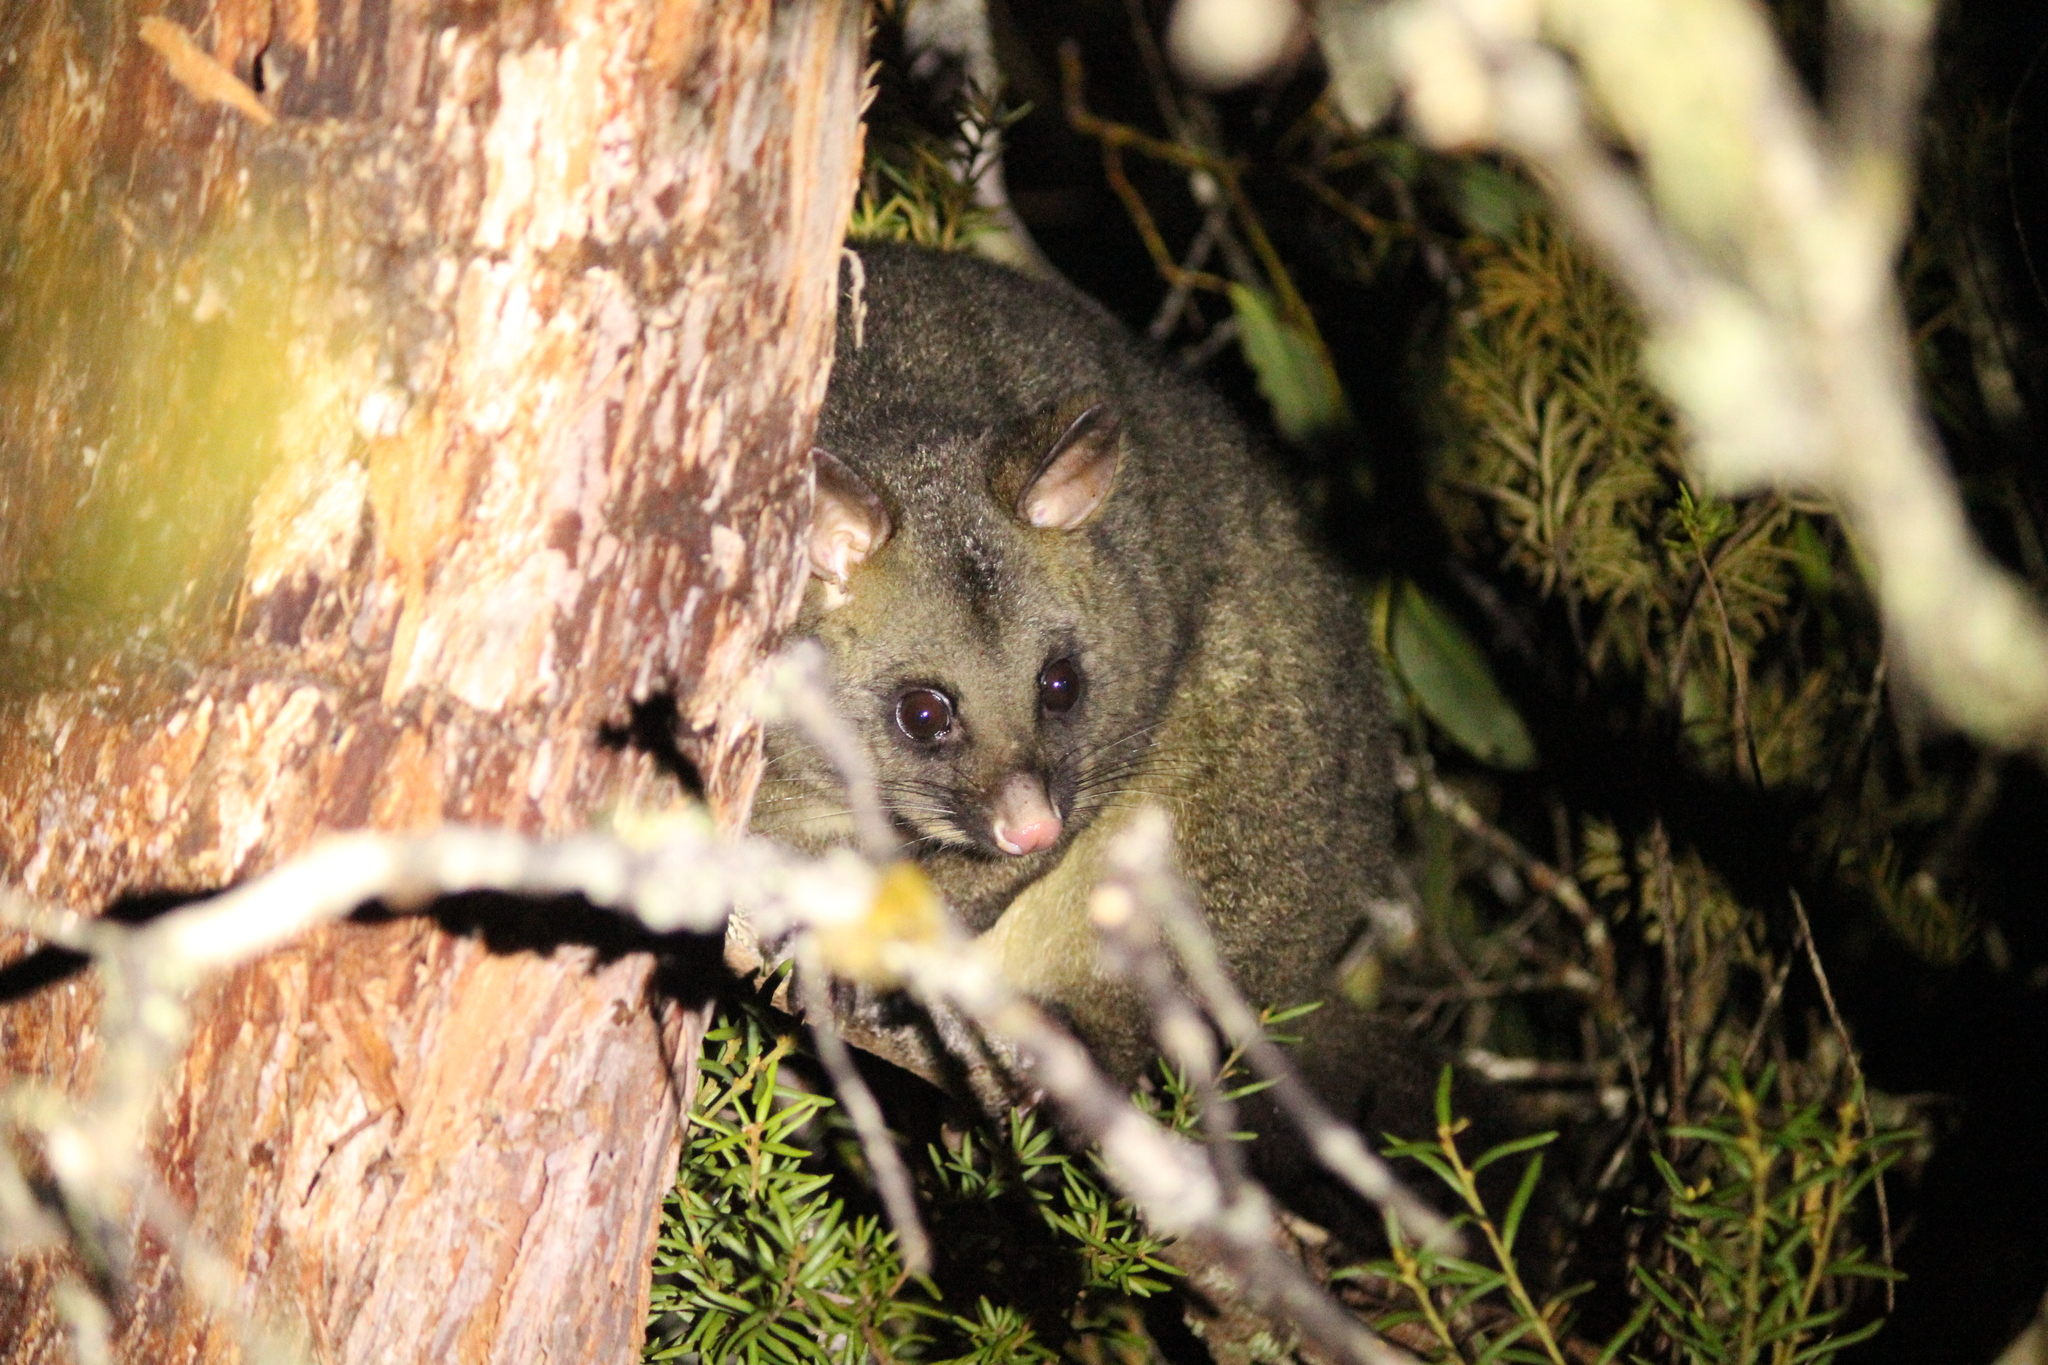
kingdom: Animalia
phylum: Chordata
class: Mammalia
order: Diprotodontia
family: Phalangeridae
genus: Trichosurus
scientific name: Trichosurus vulpecula
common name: Common brushtail
